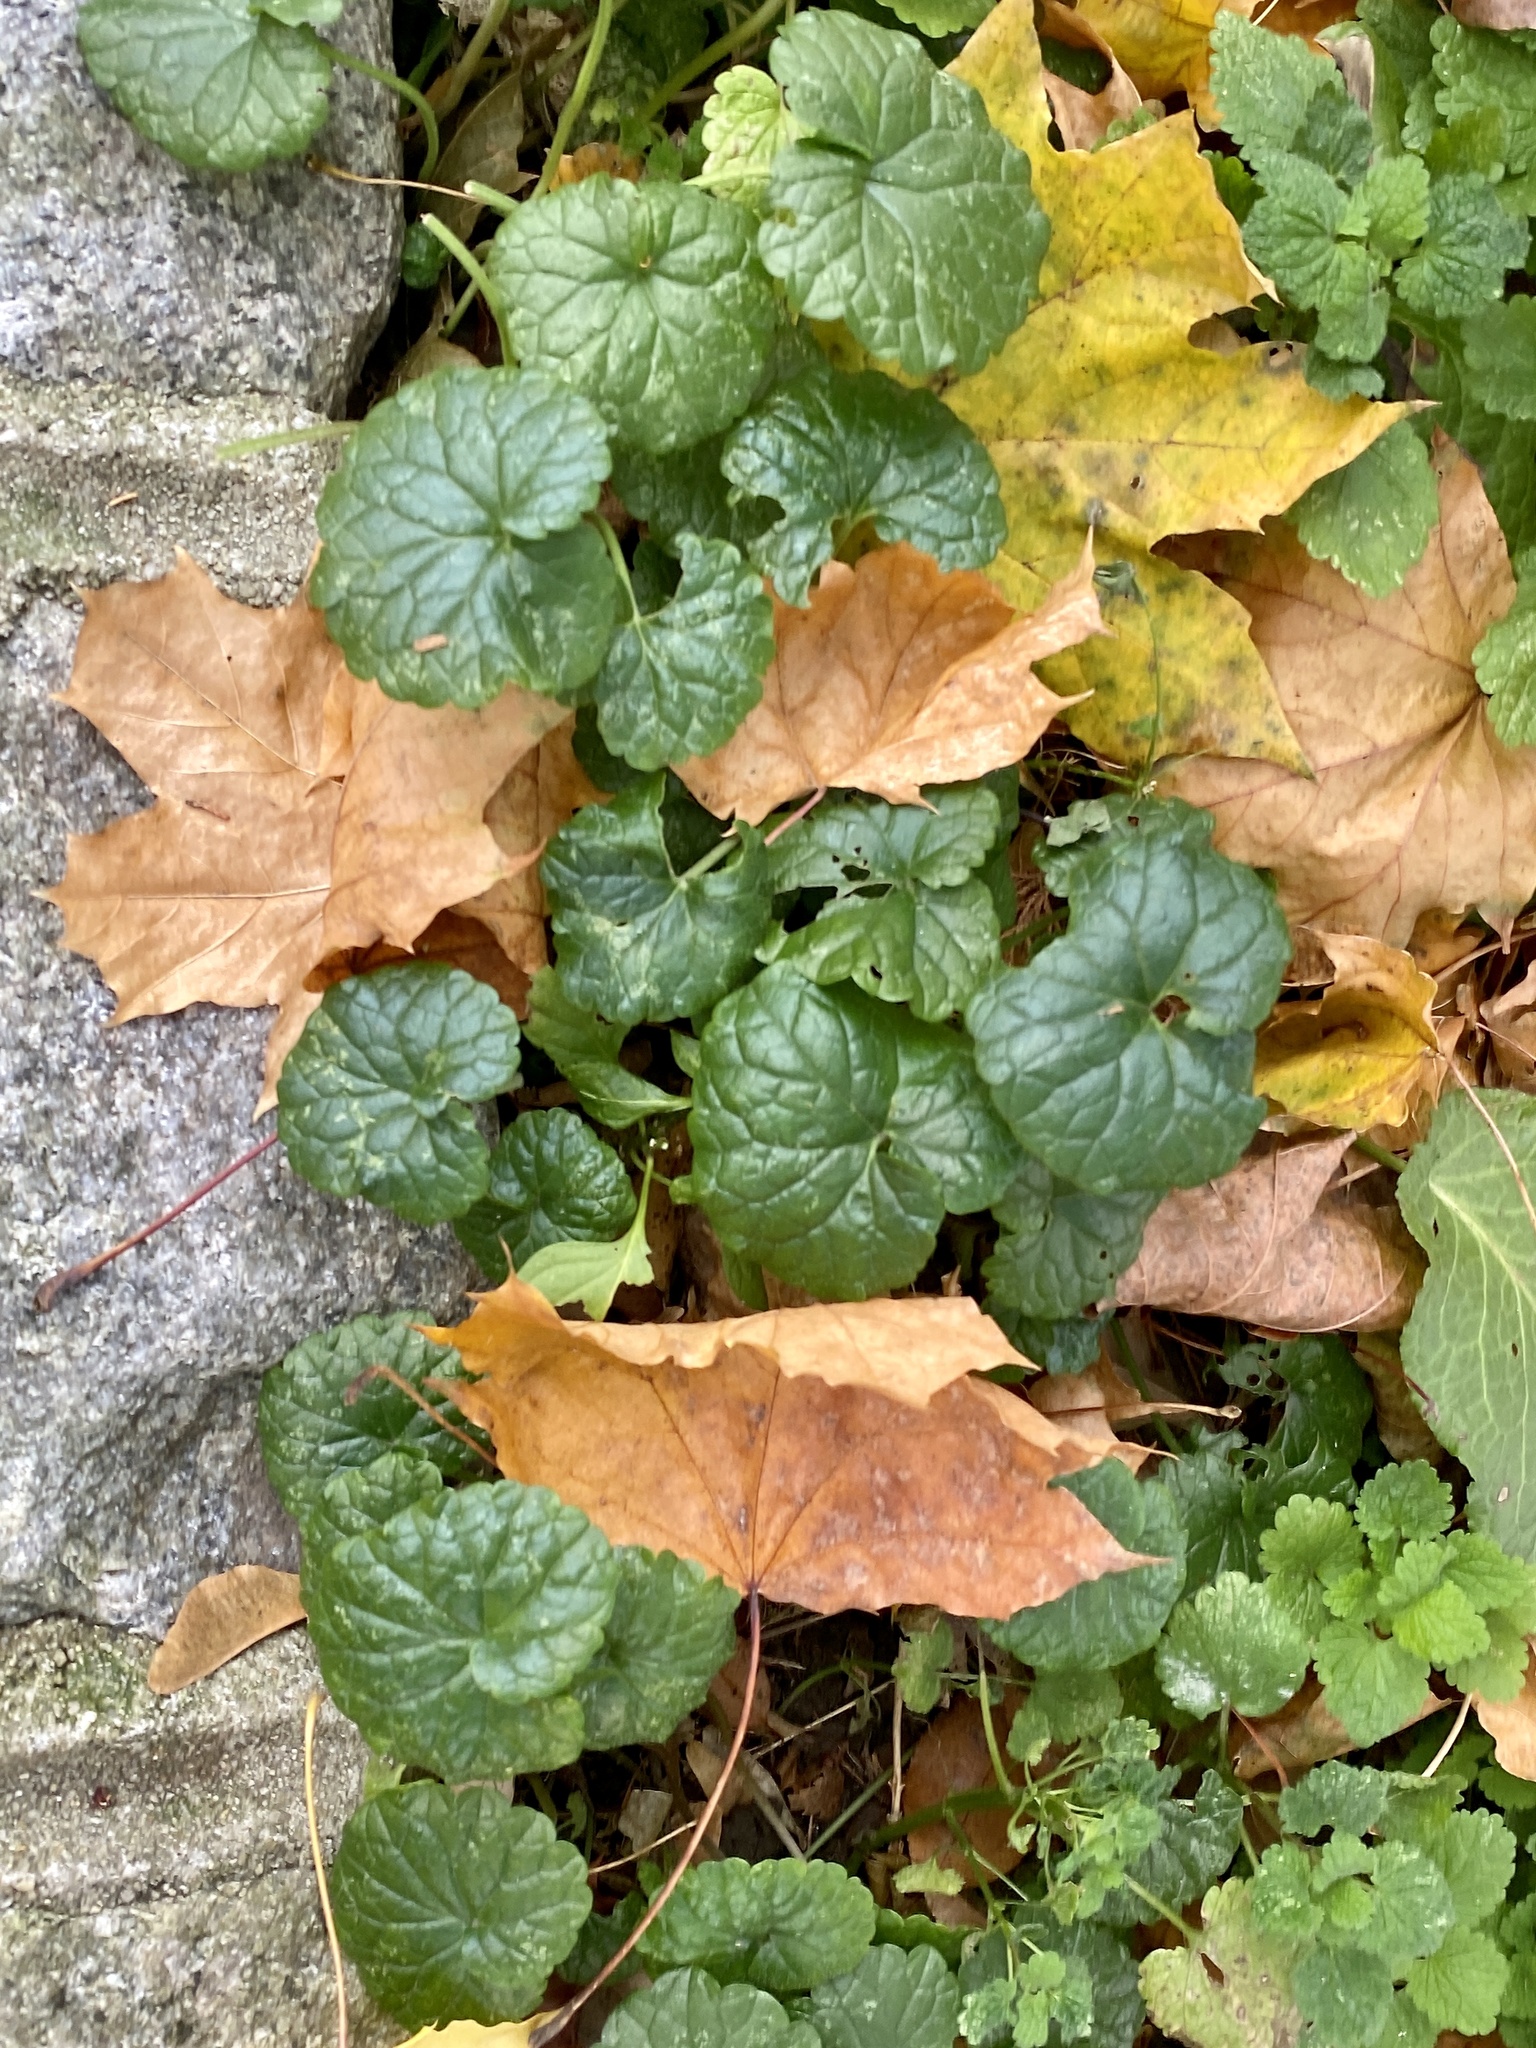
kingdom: Plantae
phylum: Tracheophyta
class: Magnoliopsida
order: Lamiales
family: Lamiaceae
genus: Glechoma
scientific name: Glechoma hederacea
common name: Ground ivy
